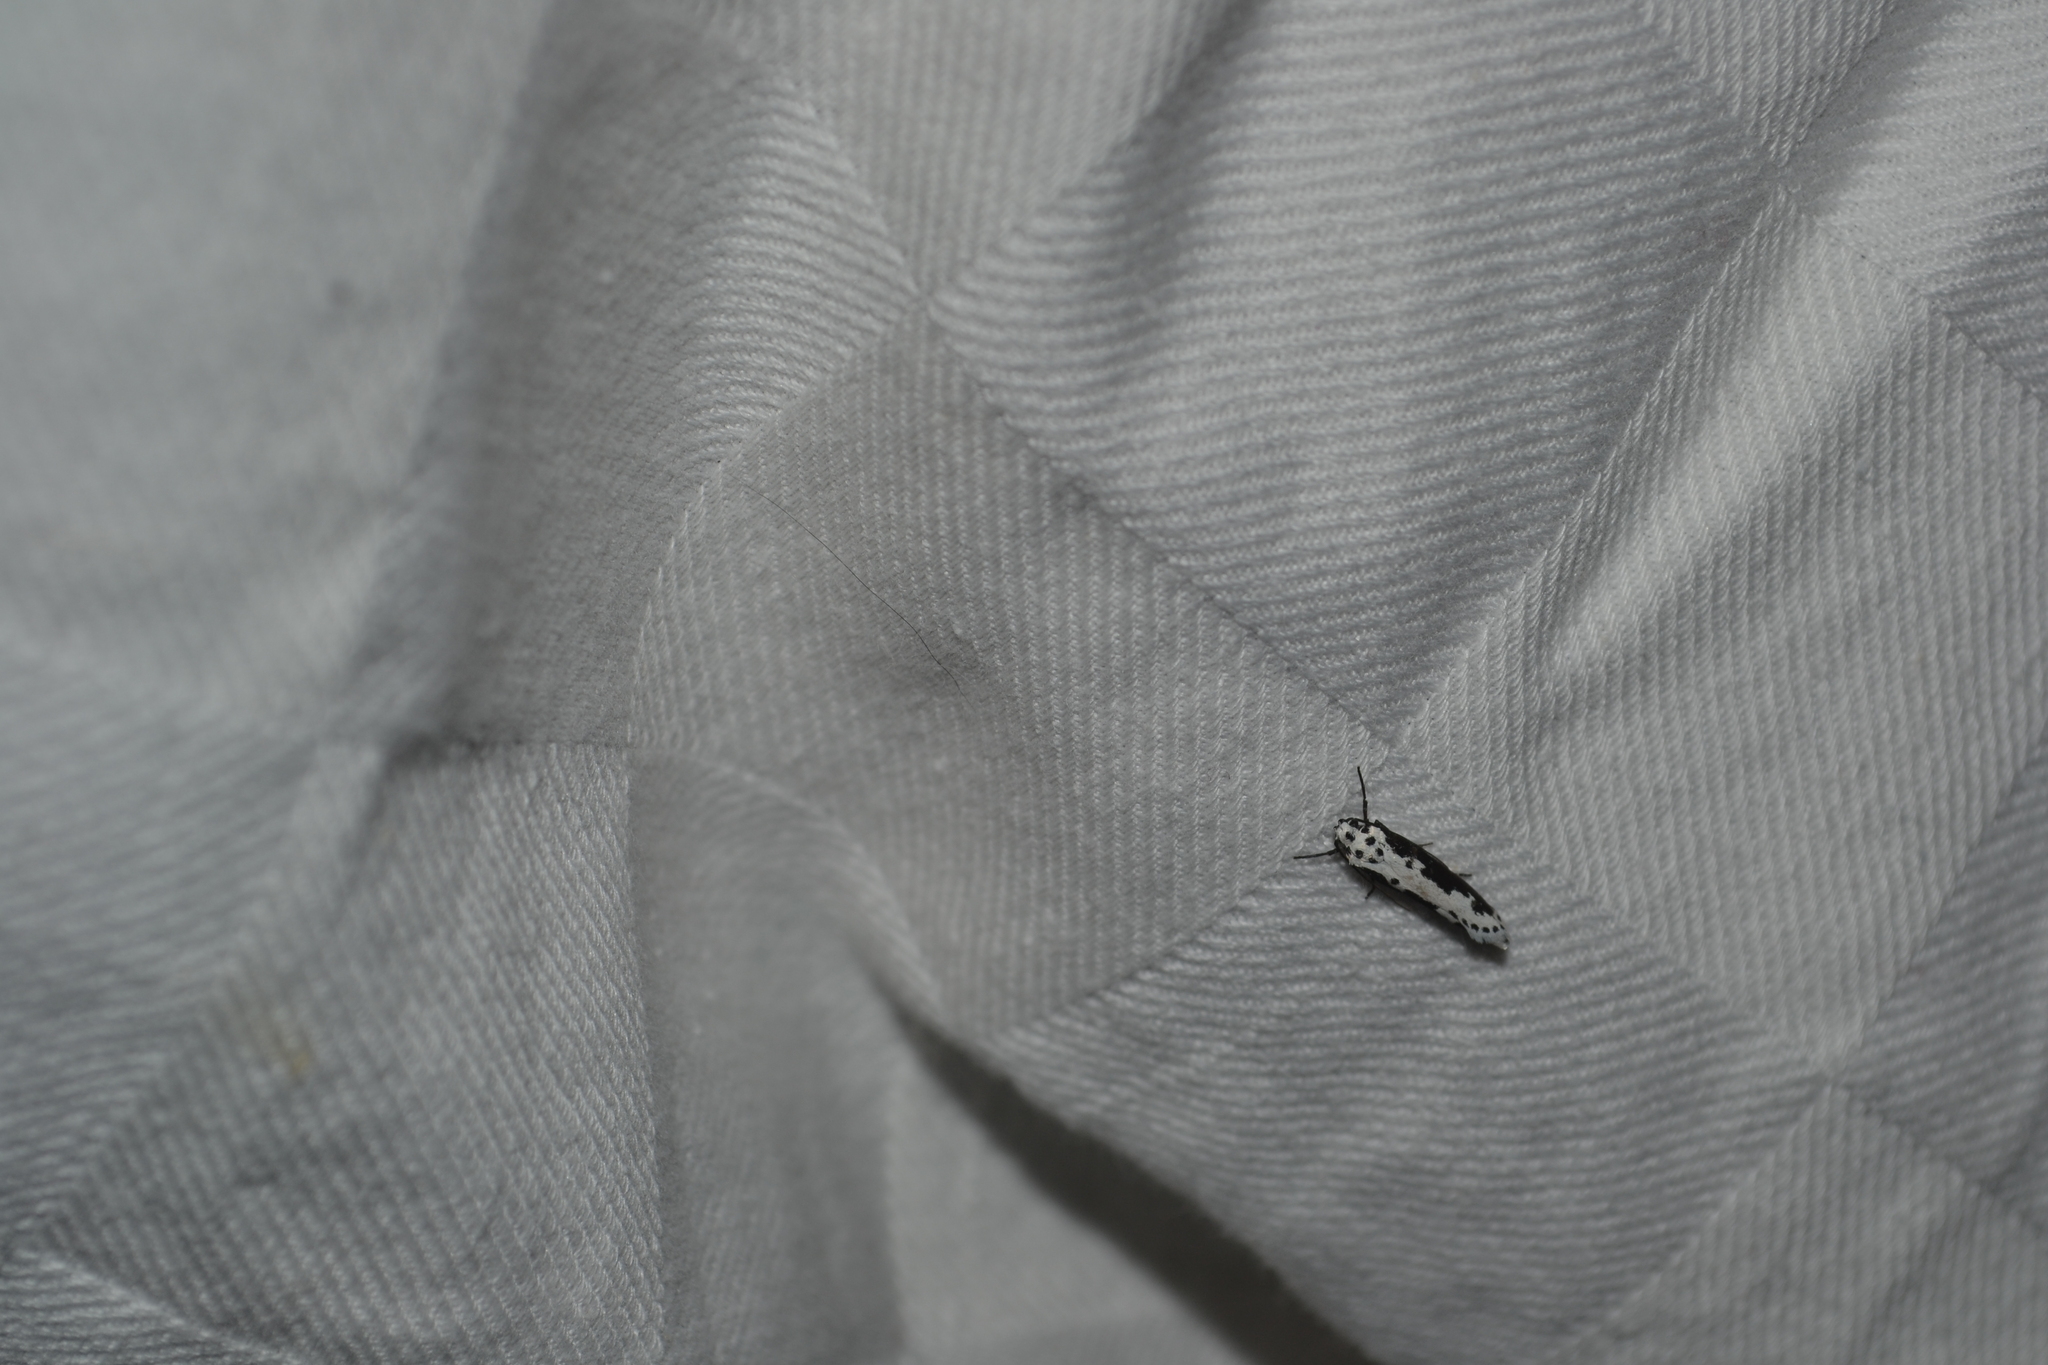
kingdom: Animalia
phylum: Arthropoda
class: Insecta
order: Lepidoptera
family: Ethmiidae
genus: Ethmia
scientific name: Ethmia semilugens
